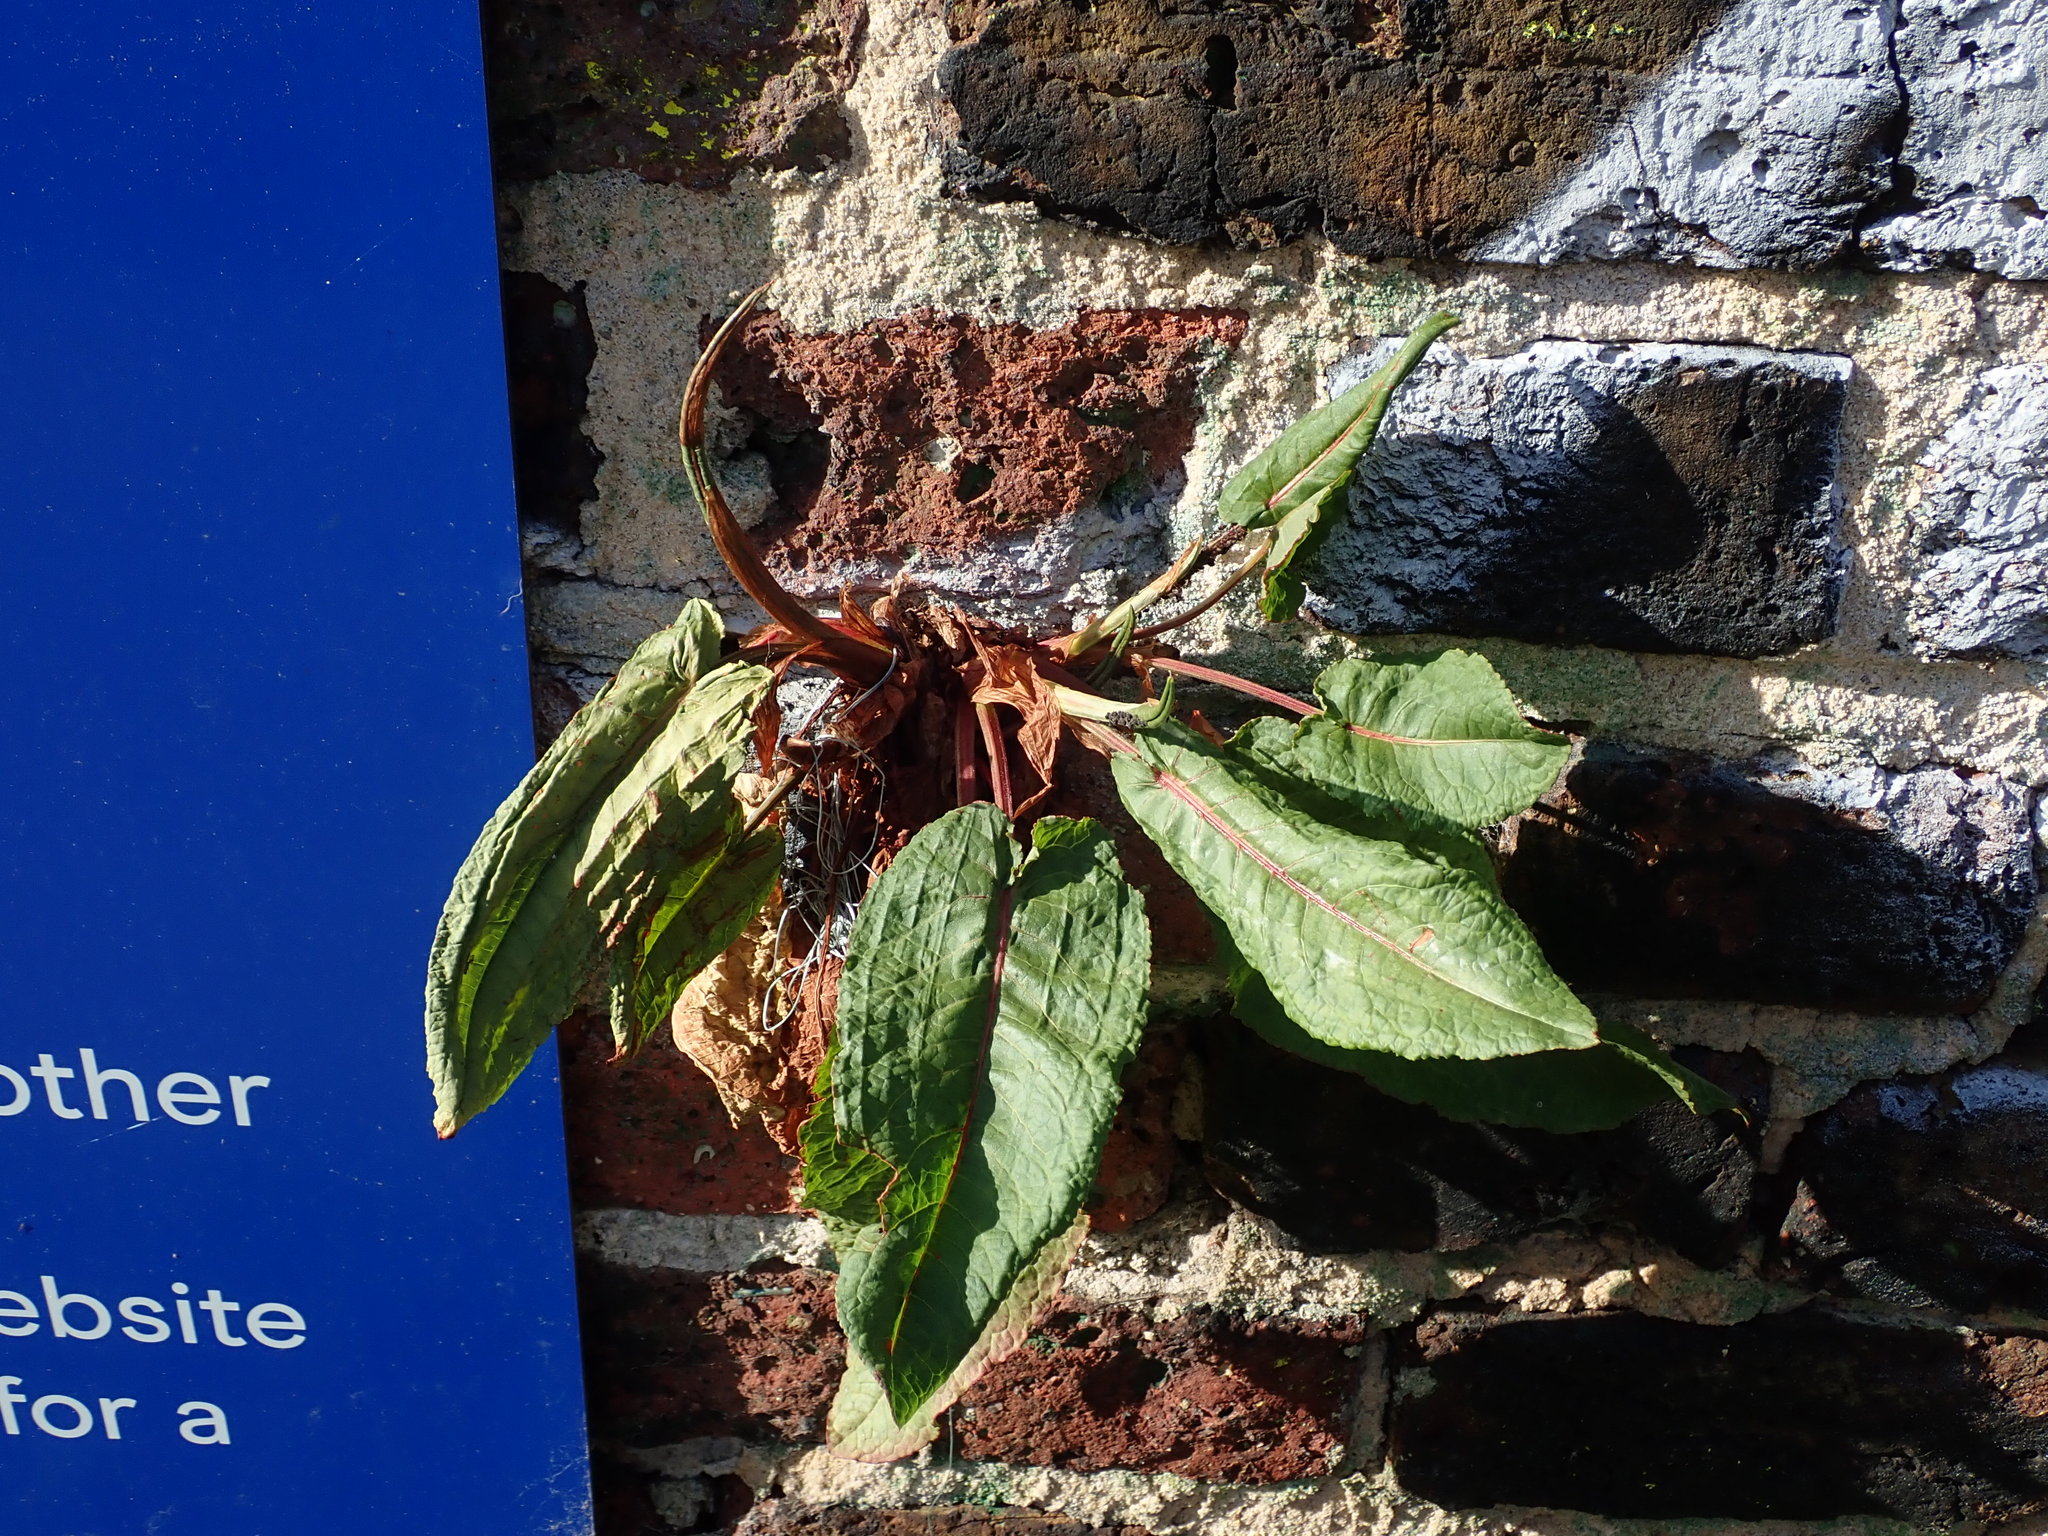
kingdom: Plantae
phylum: Tracheophyta
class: Magnoliopsida
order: Caryophyllales
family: Polygonaceae
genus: Rumex
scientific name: Rumex acetosa
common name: Garden sorrel
